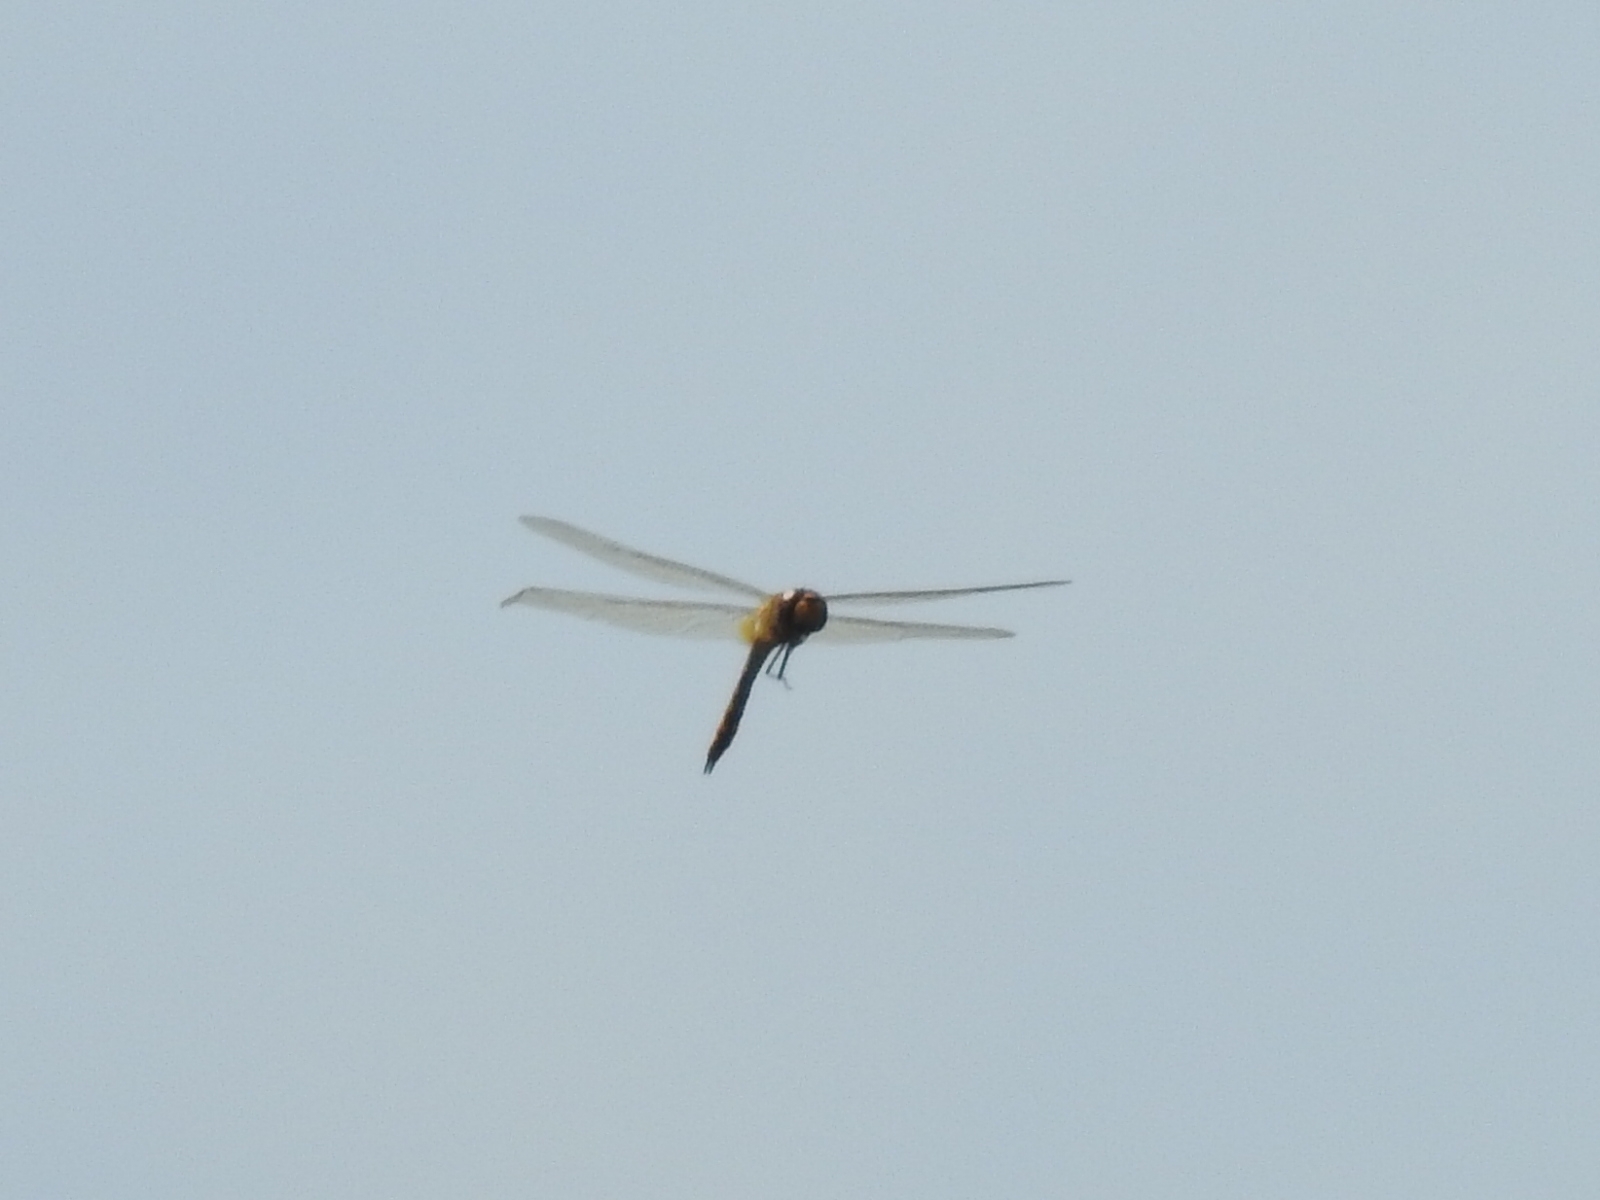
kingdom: Animalia
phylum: Arthropoda
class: Insecta
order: Odonata
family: Libellulidae
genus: Pantala
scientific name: Pantala flavescens
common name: Wandering glider
